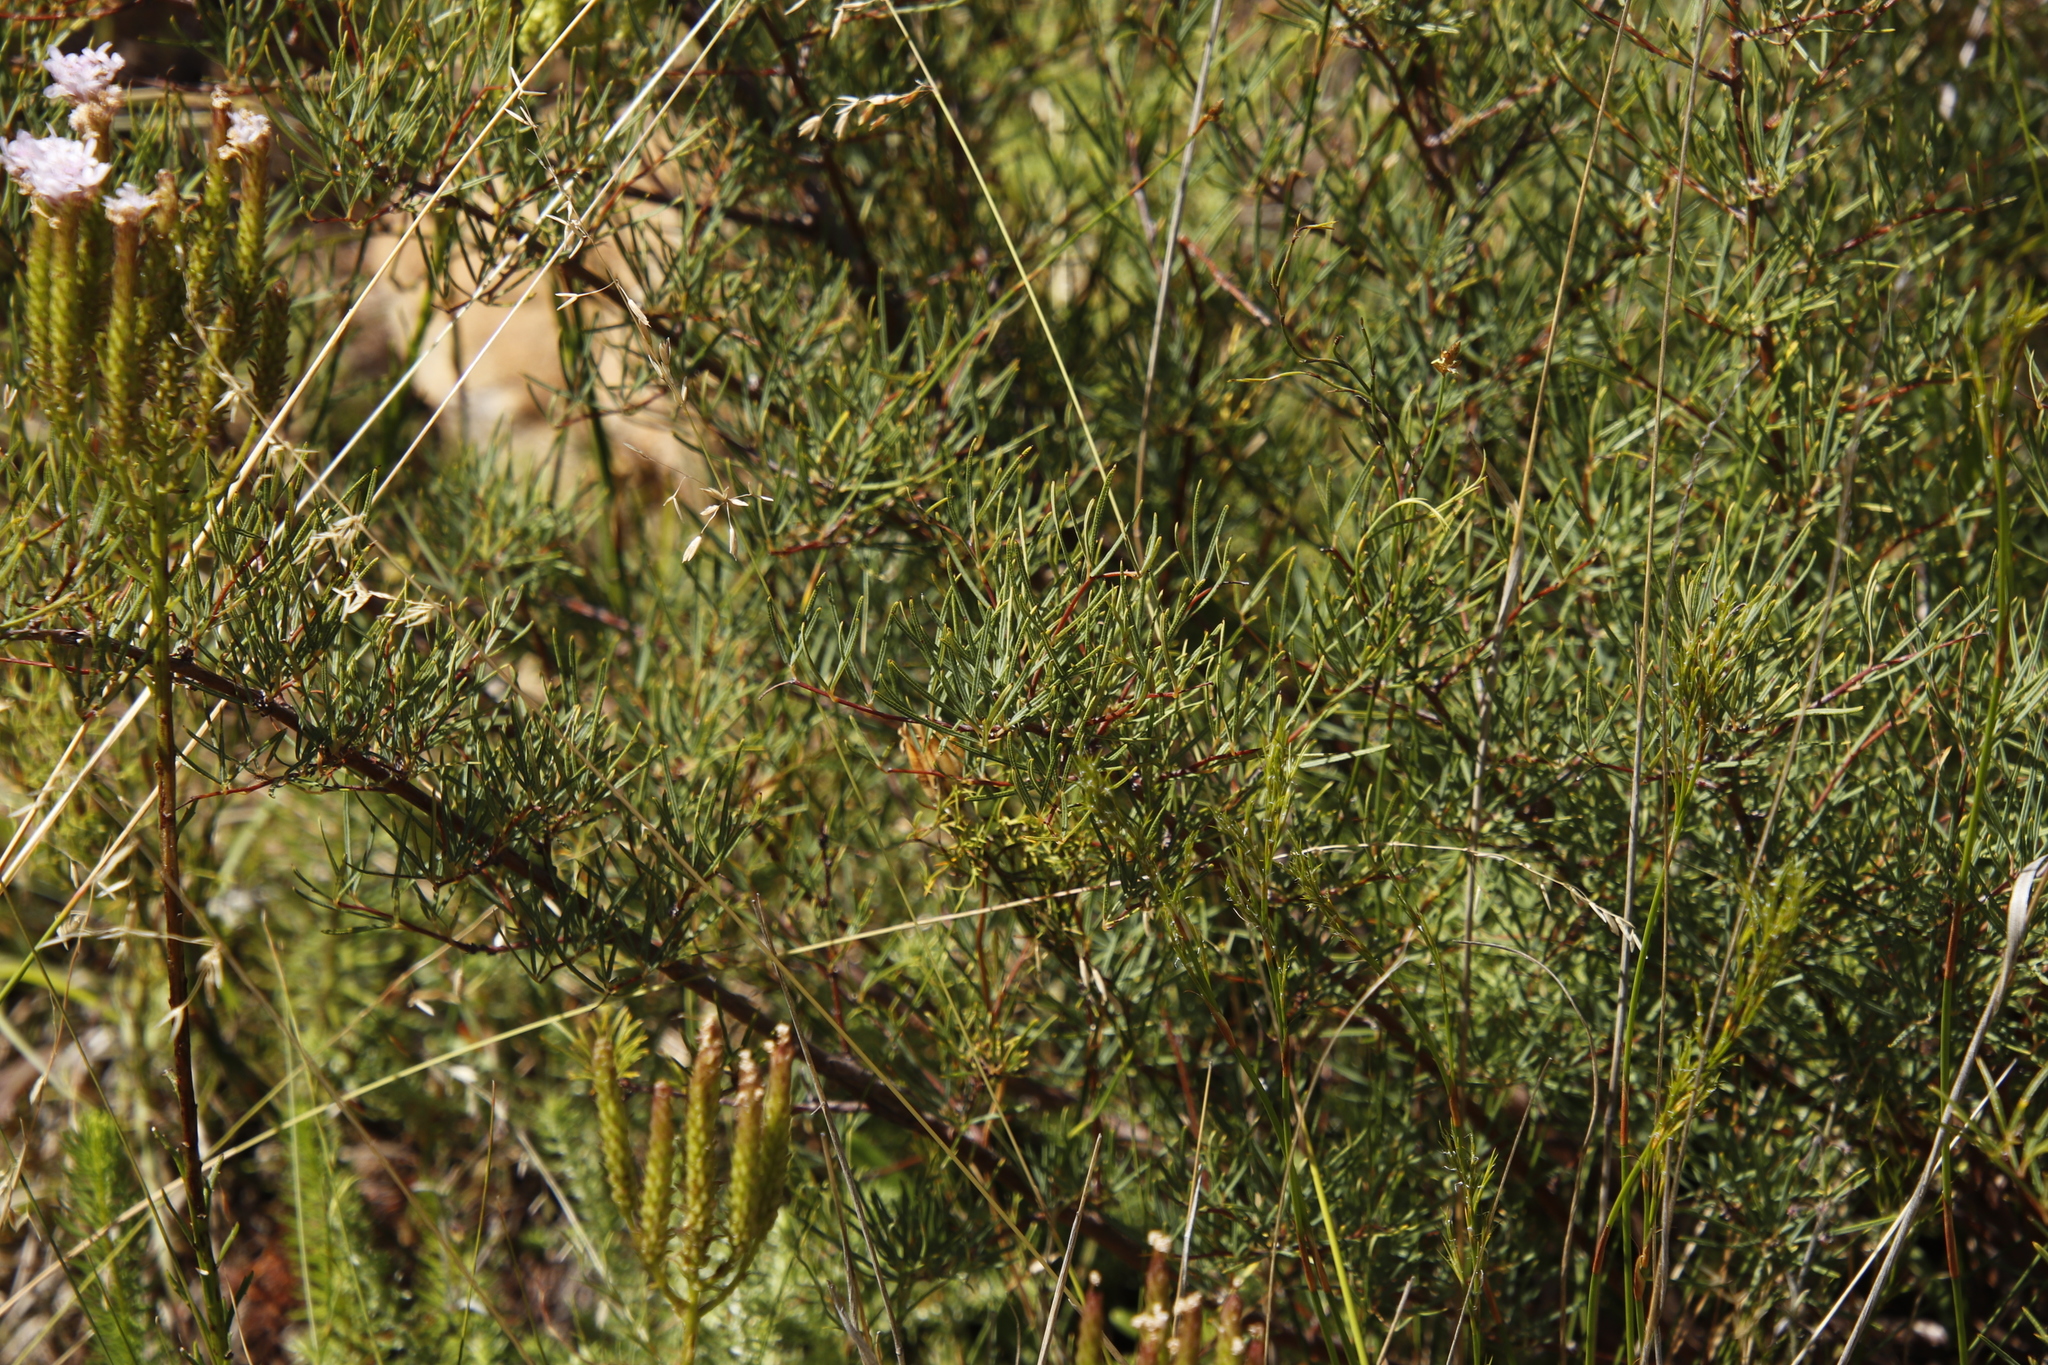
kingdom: Plantae
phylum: Tracheophyta
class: Magnoliopsida
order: Sapindales
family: Anacardiaceae
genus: Searsia
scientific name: Searsia rosmarinifolia
